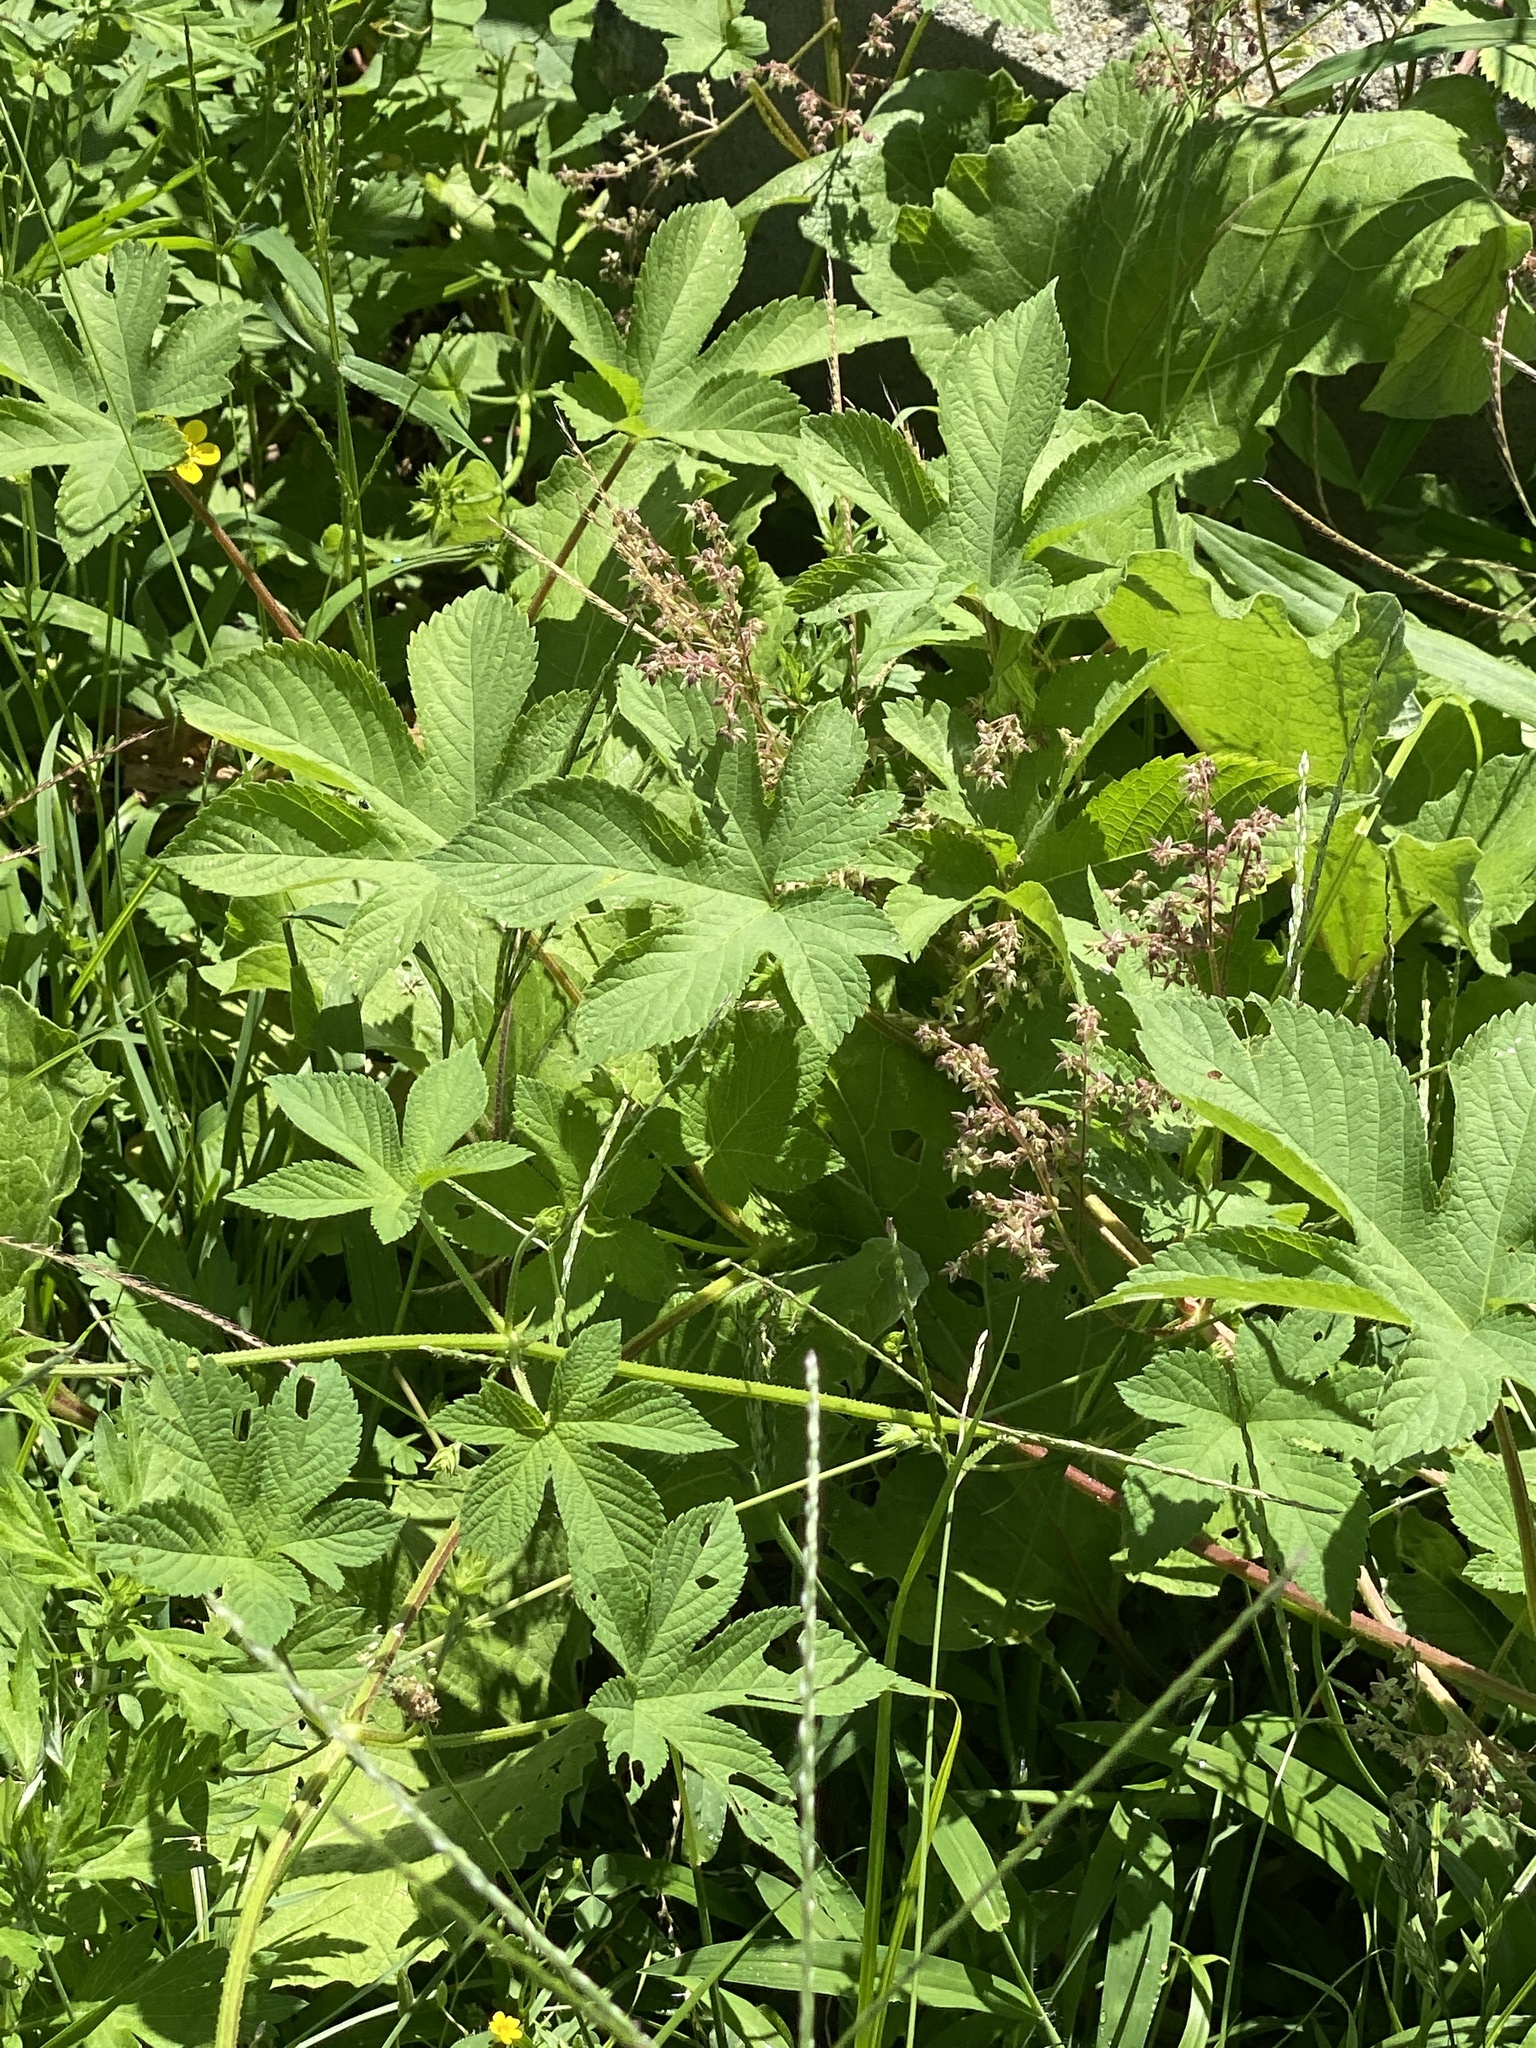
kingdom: Plantae
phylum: Tracheophyta
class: Magnoliopsida
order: Rosales
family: Cannabaceae
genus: Humulus
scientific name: Humulus scandens
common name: Japanese hop
